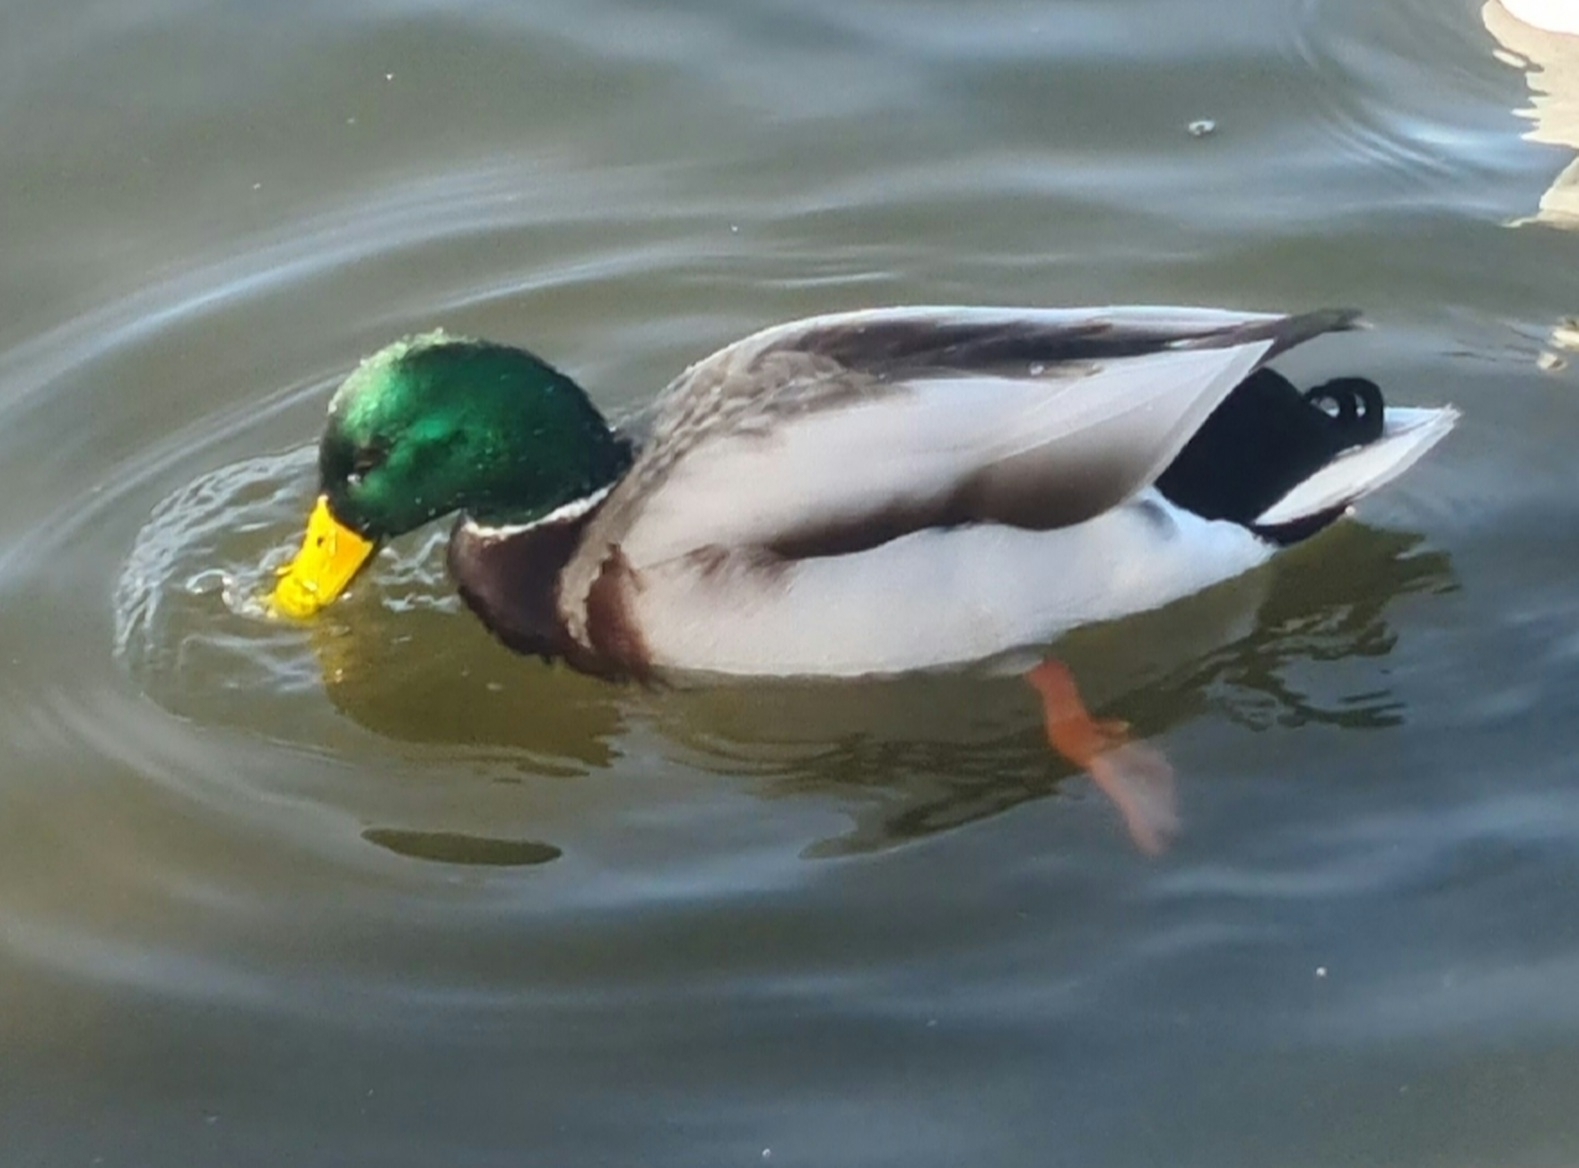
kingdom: Animalia
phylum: Chordata
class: Aves
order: Anseriformes
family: Anatidae
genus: Anas
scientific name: Anas platyrhynchos
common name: Mallard
